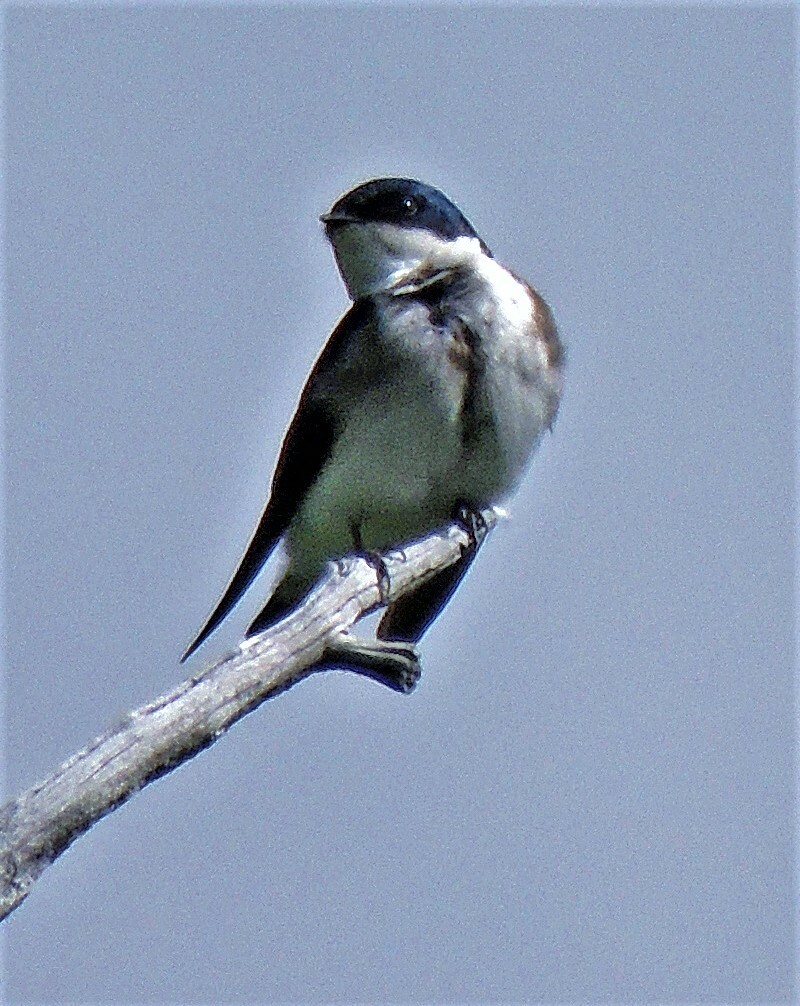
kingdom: Animalia
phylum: Chordata
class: Aves
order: Passeriformes
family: Hirundinidae
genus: Tachycineta
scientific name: Tachycineta leucopyga
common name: Chilean swallow
